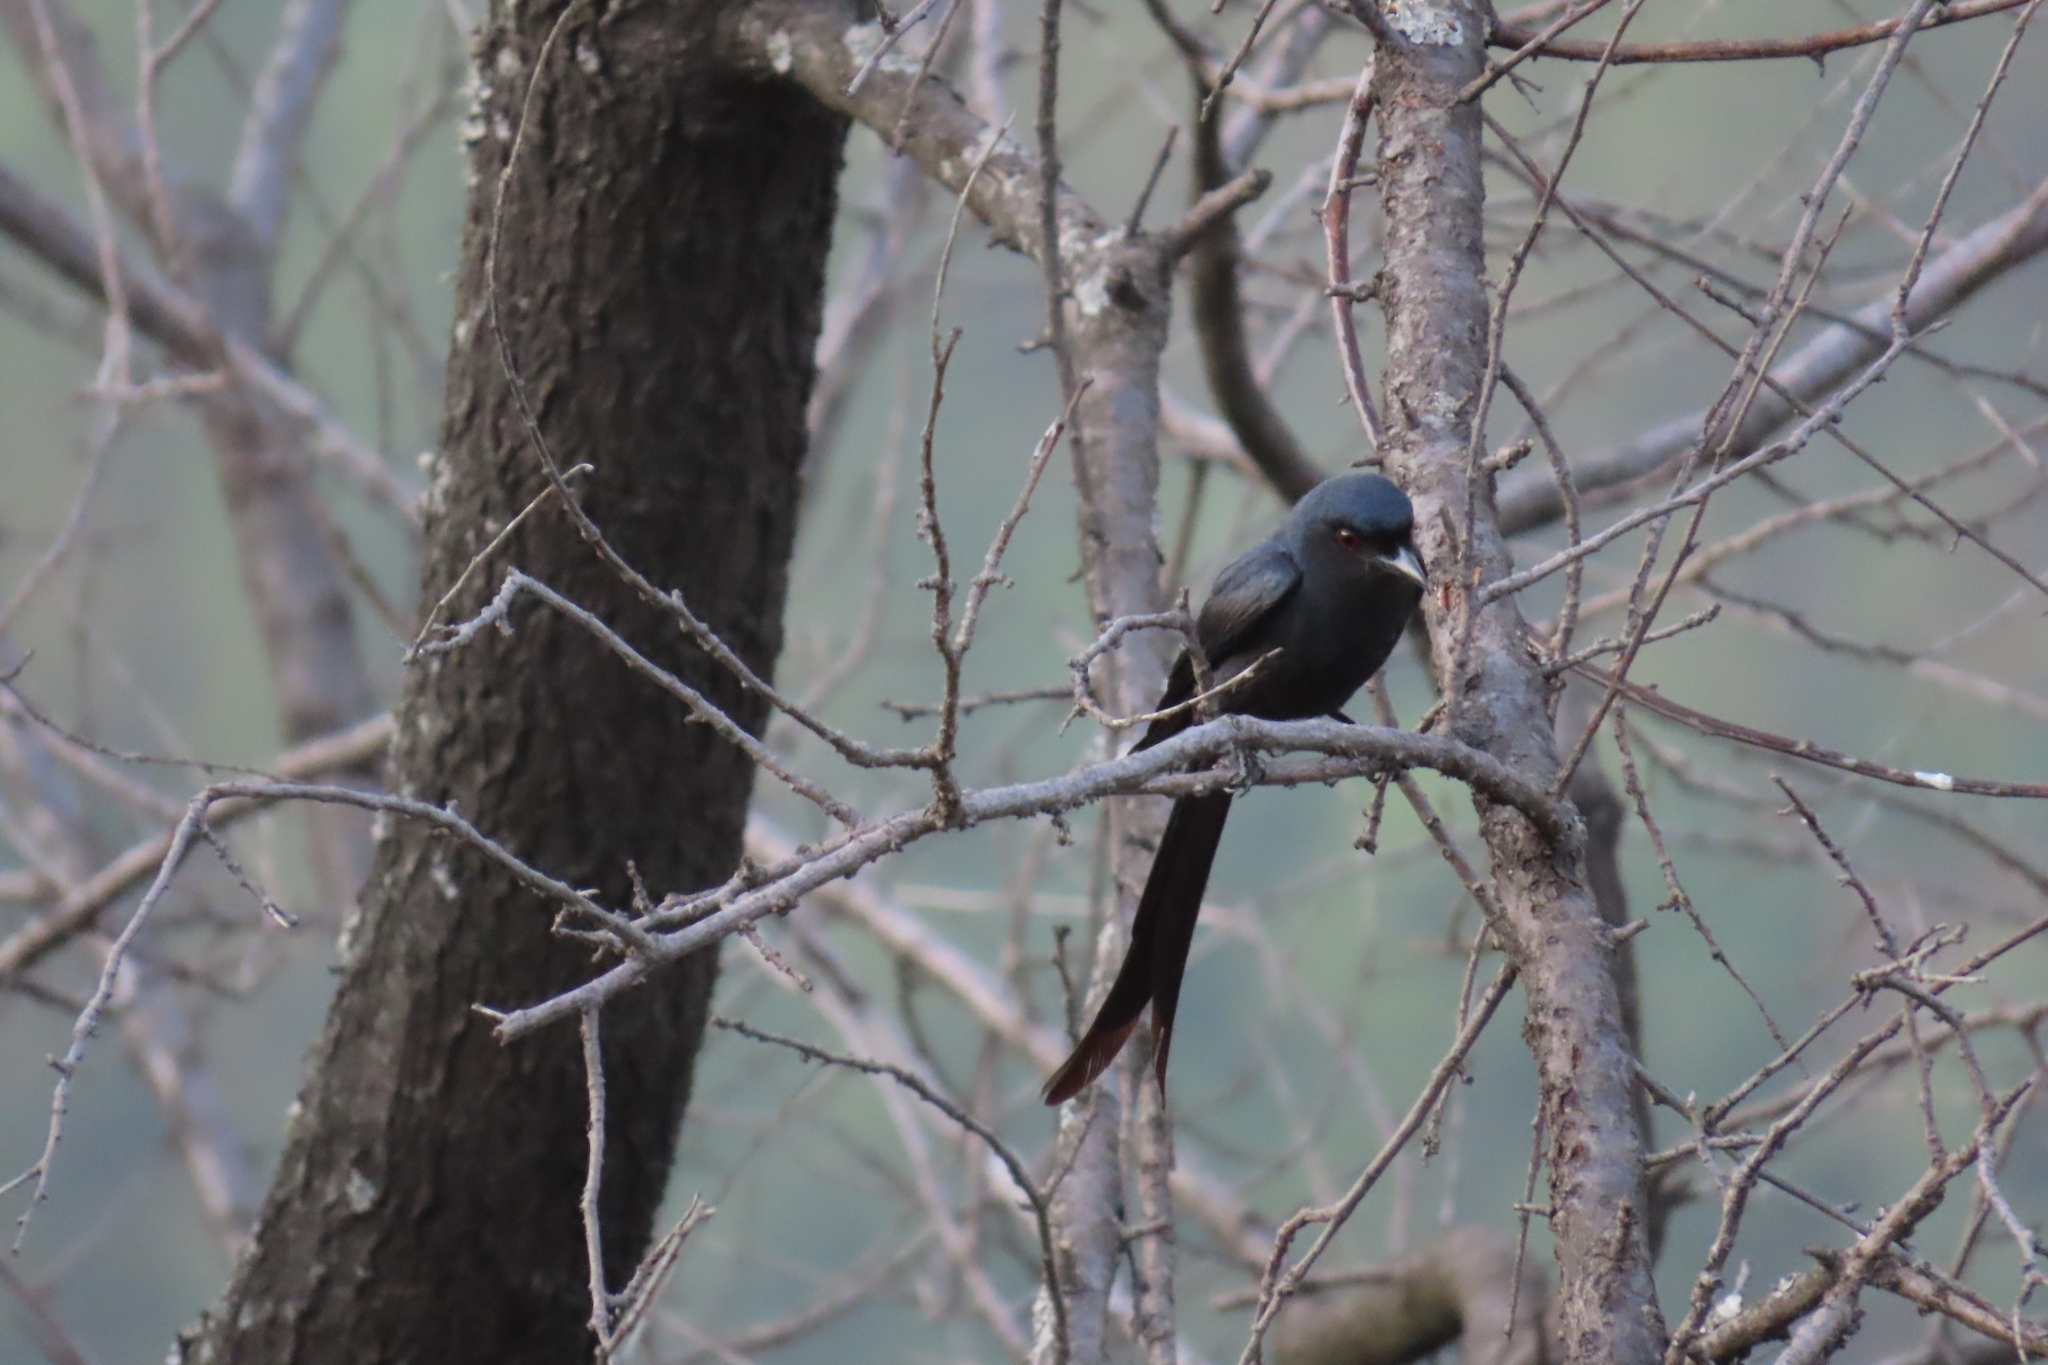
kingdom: Animalia
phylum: Chordata
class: Aves
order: Passeriformes
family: Dicruridae
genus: Dicrurus
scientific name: Dicrurus leucophaeus
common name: Ashy drongo
